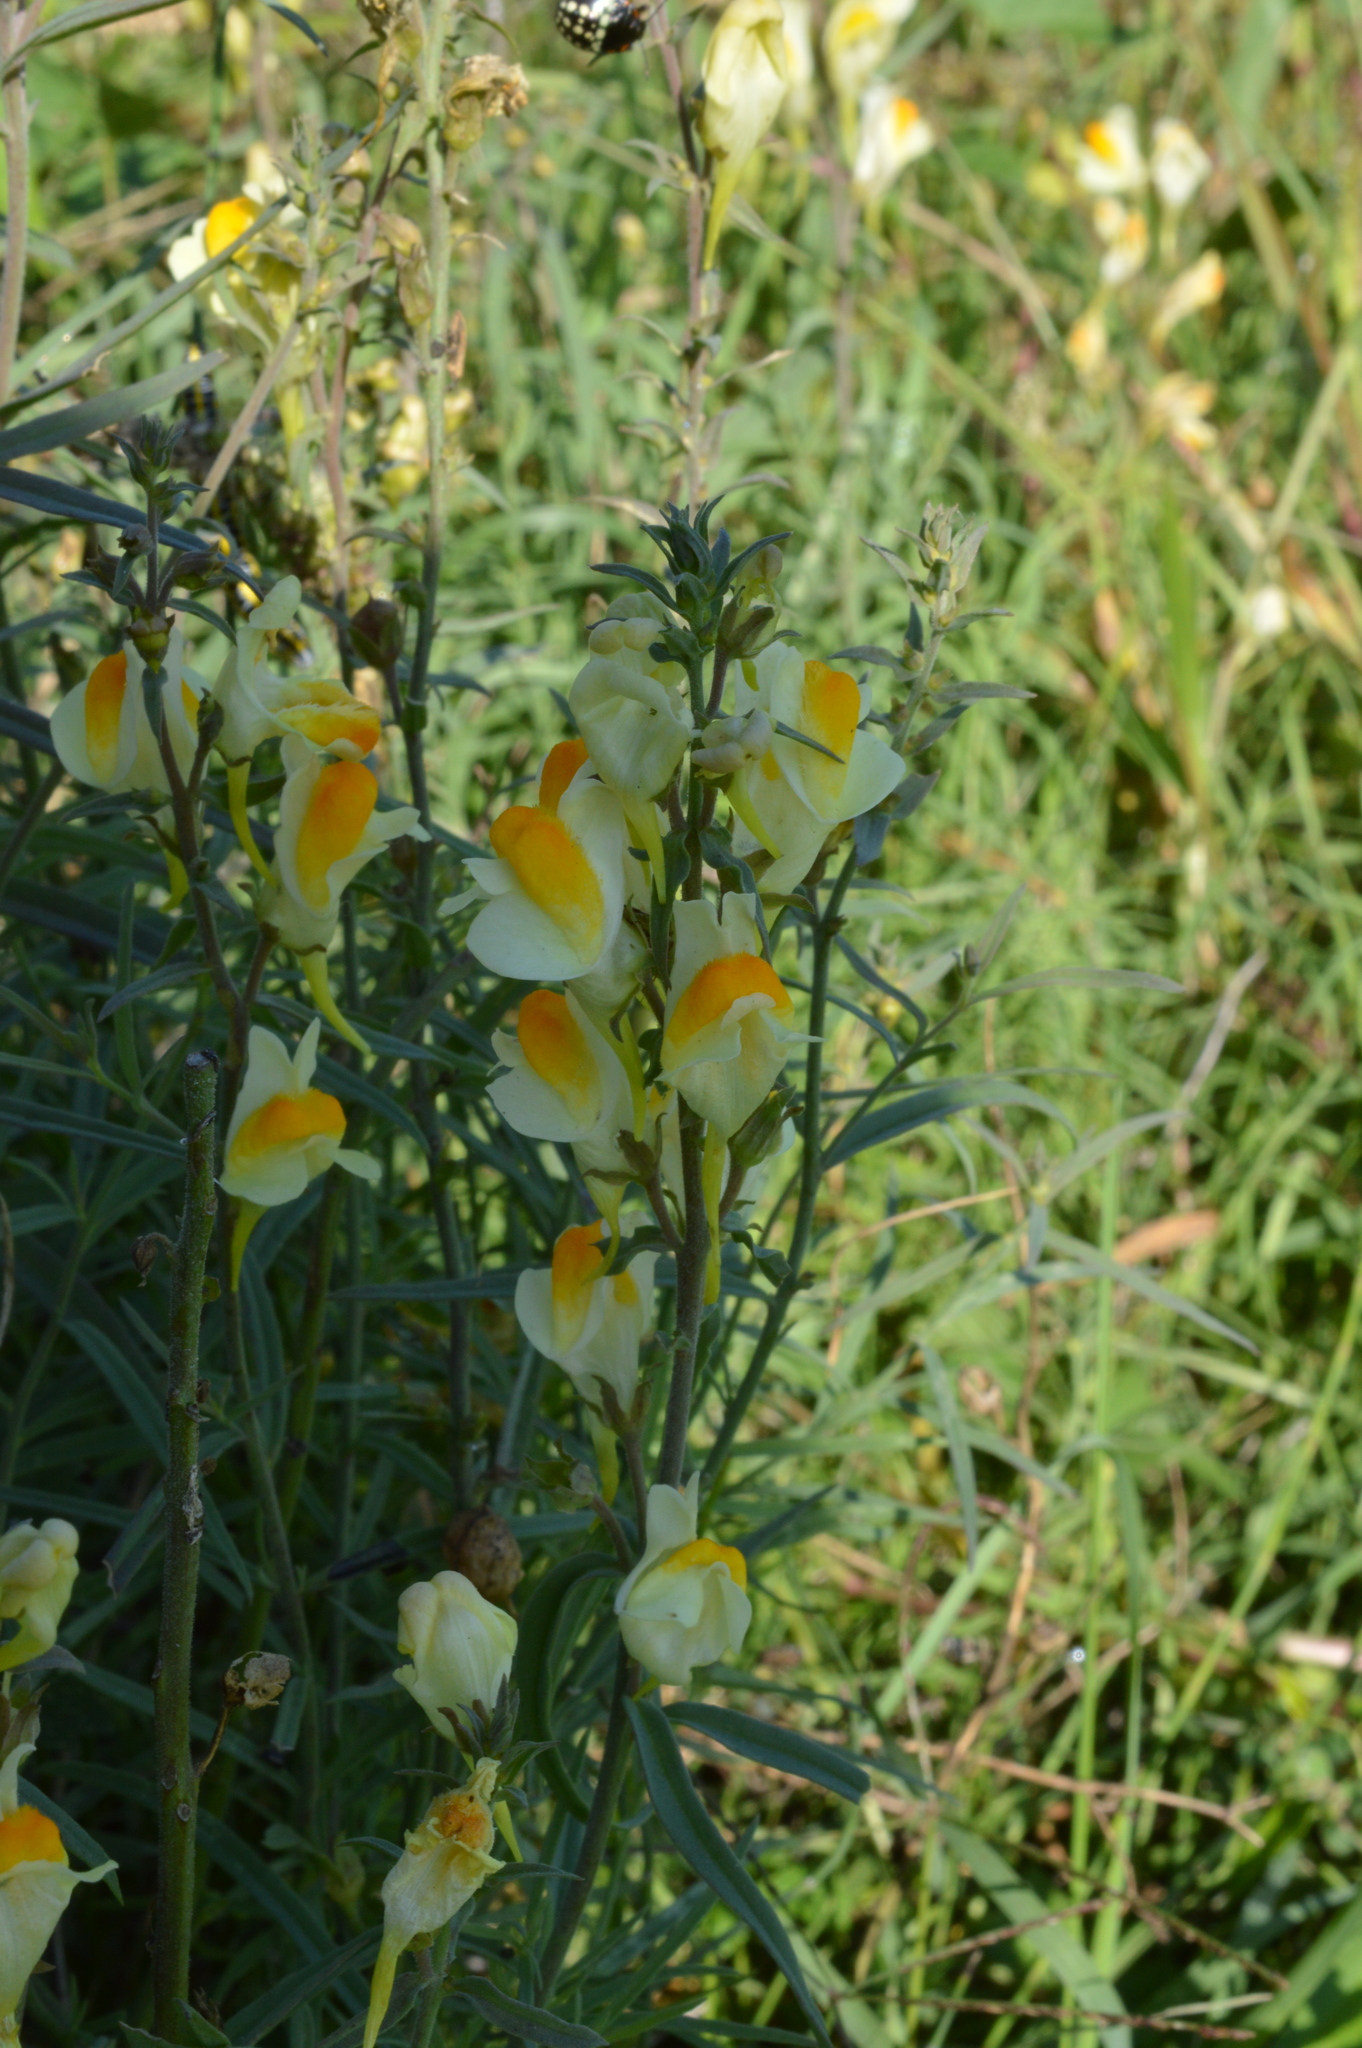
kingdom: Plantae
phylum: Tracheophyta
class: Magnoliopsida
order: Lamiales
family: Plantaginaceae
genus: Linaria
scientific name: Linaria vulgaris
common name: Butter and eggs
